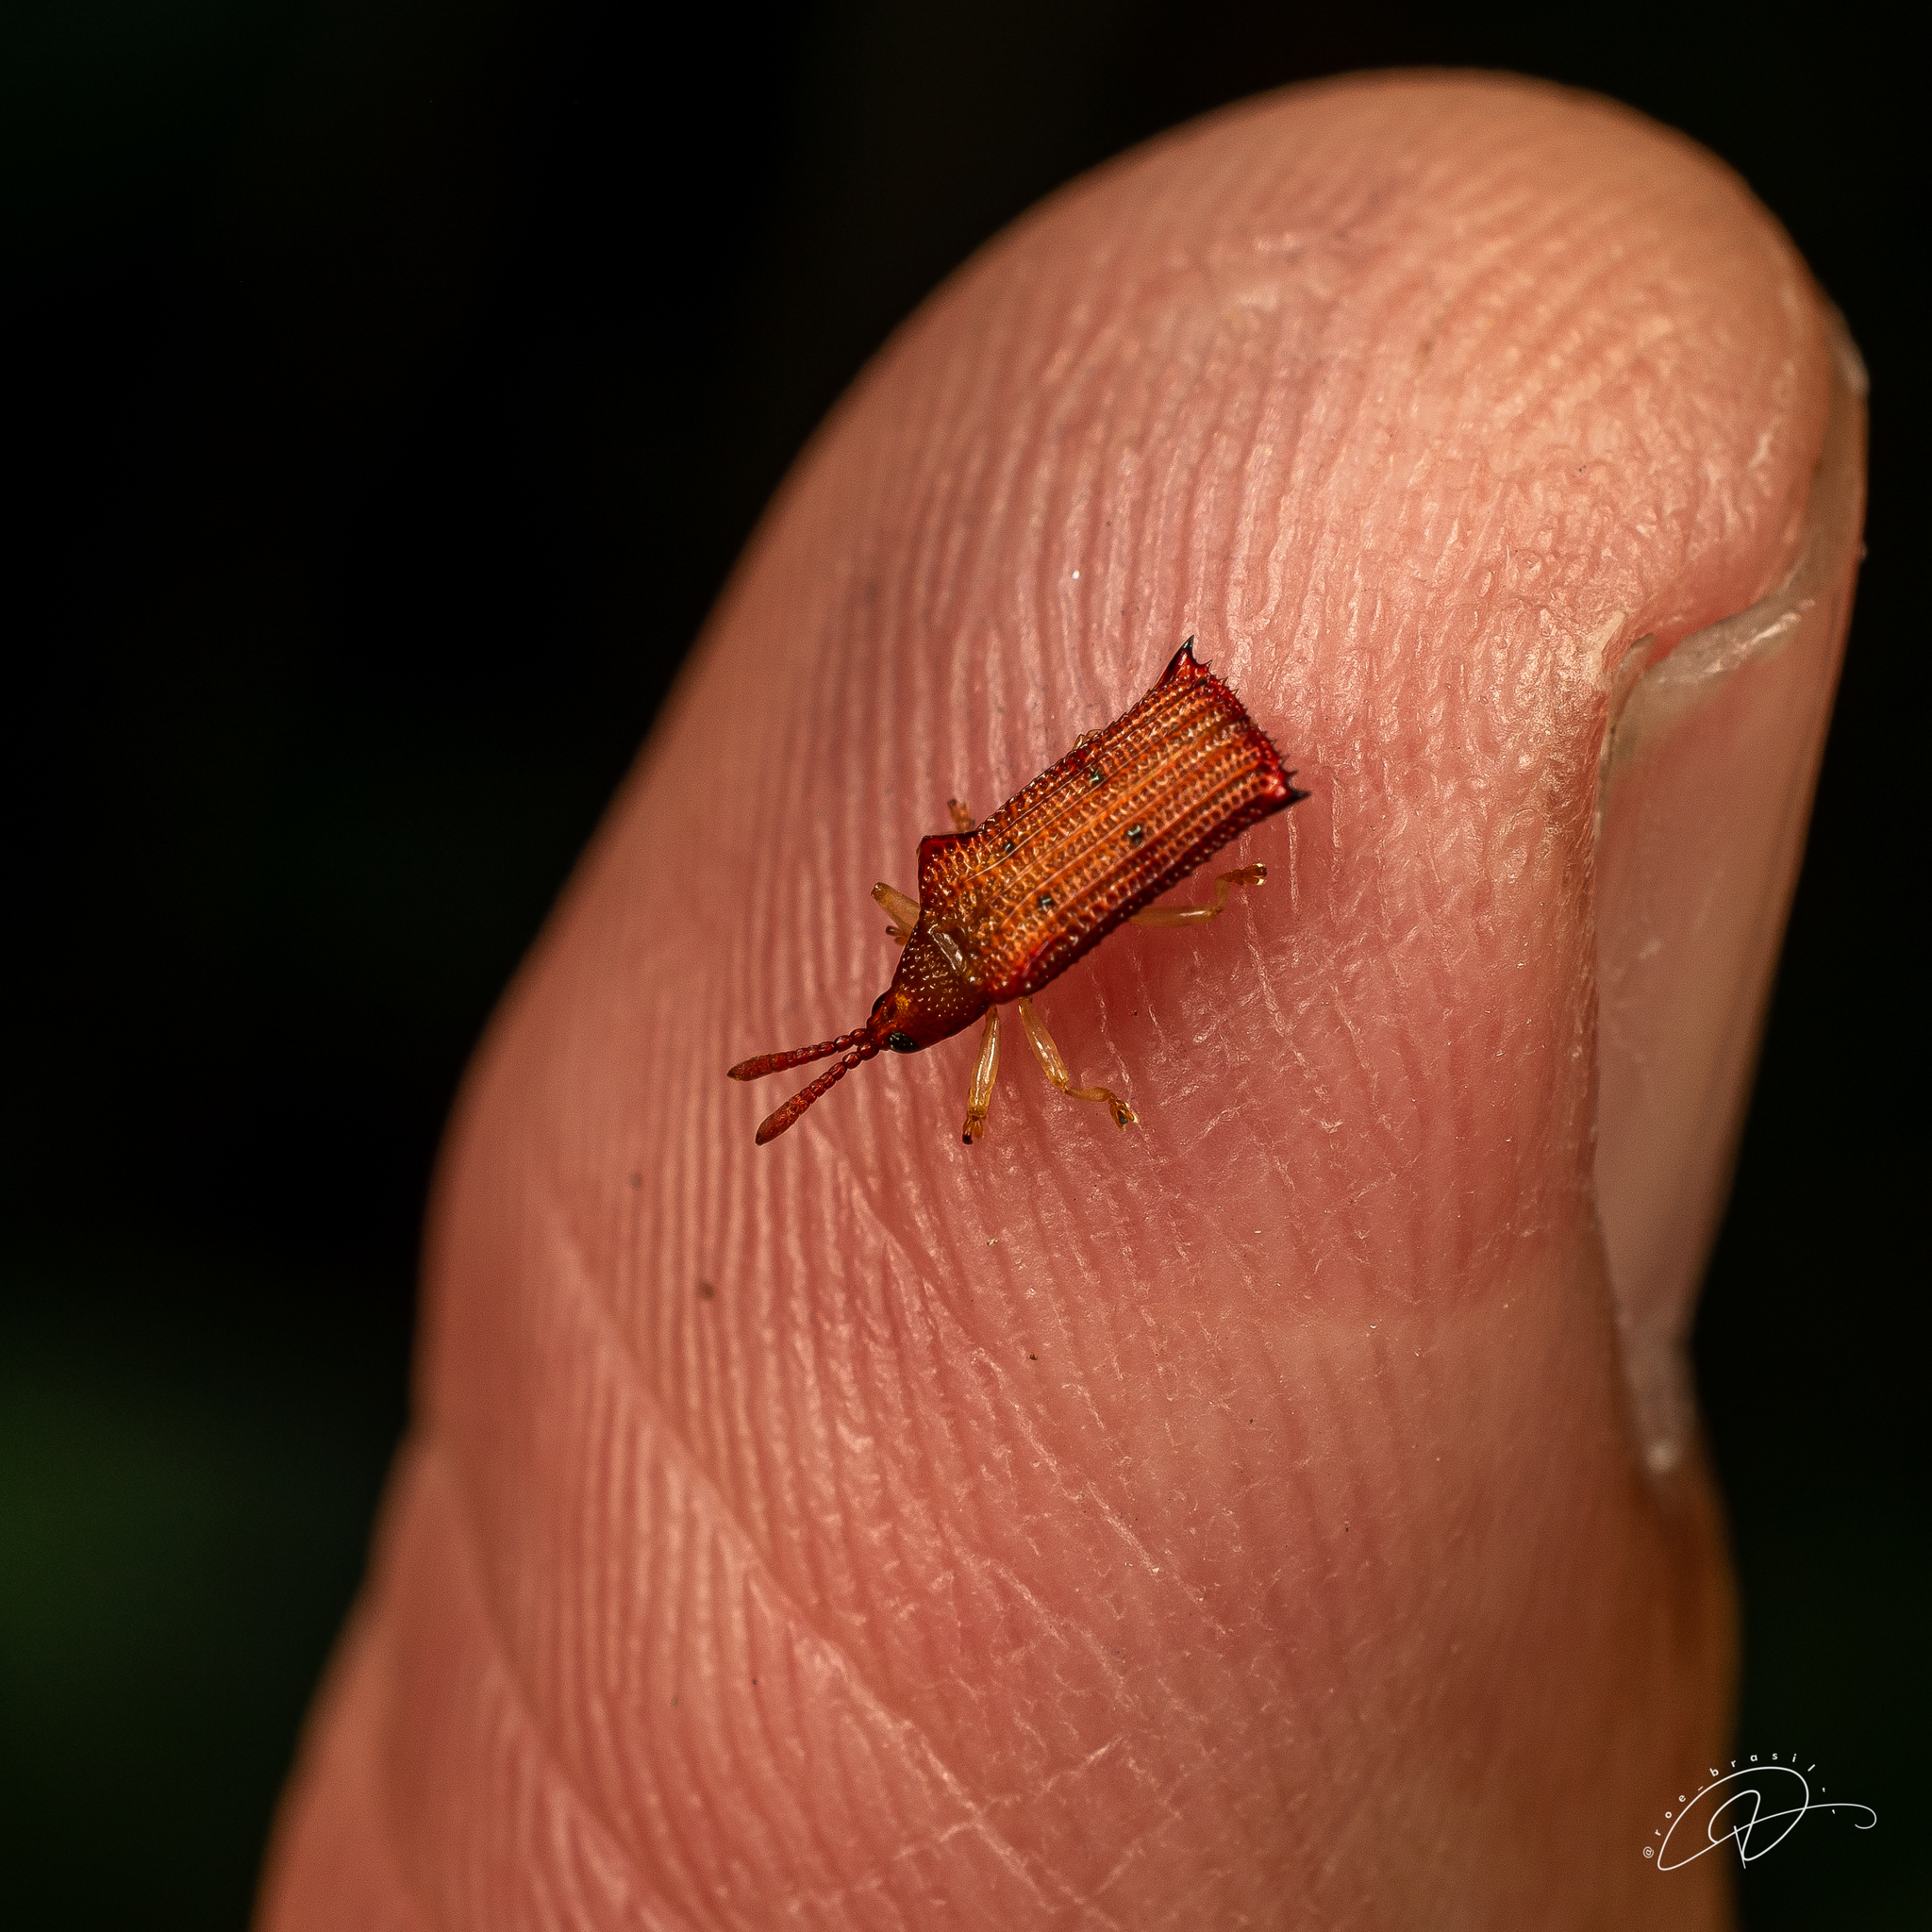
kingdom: Animalia
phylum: Arthropoda
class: Insecta
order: Coleoptera
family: Chrysomelidae
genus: Octhispa
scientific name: Octhispa pustulata
